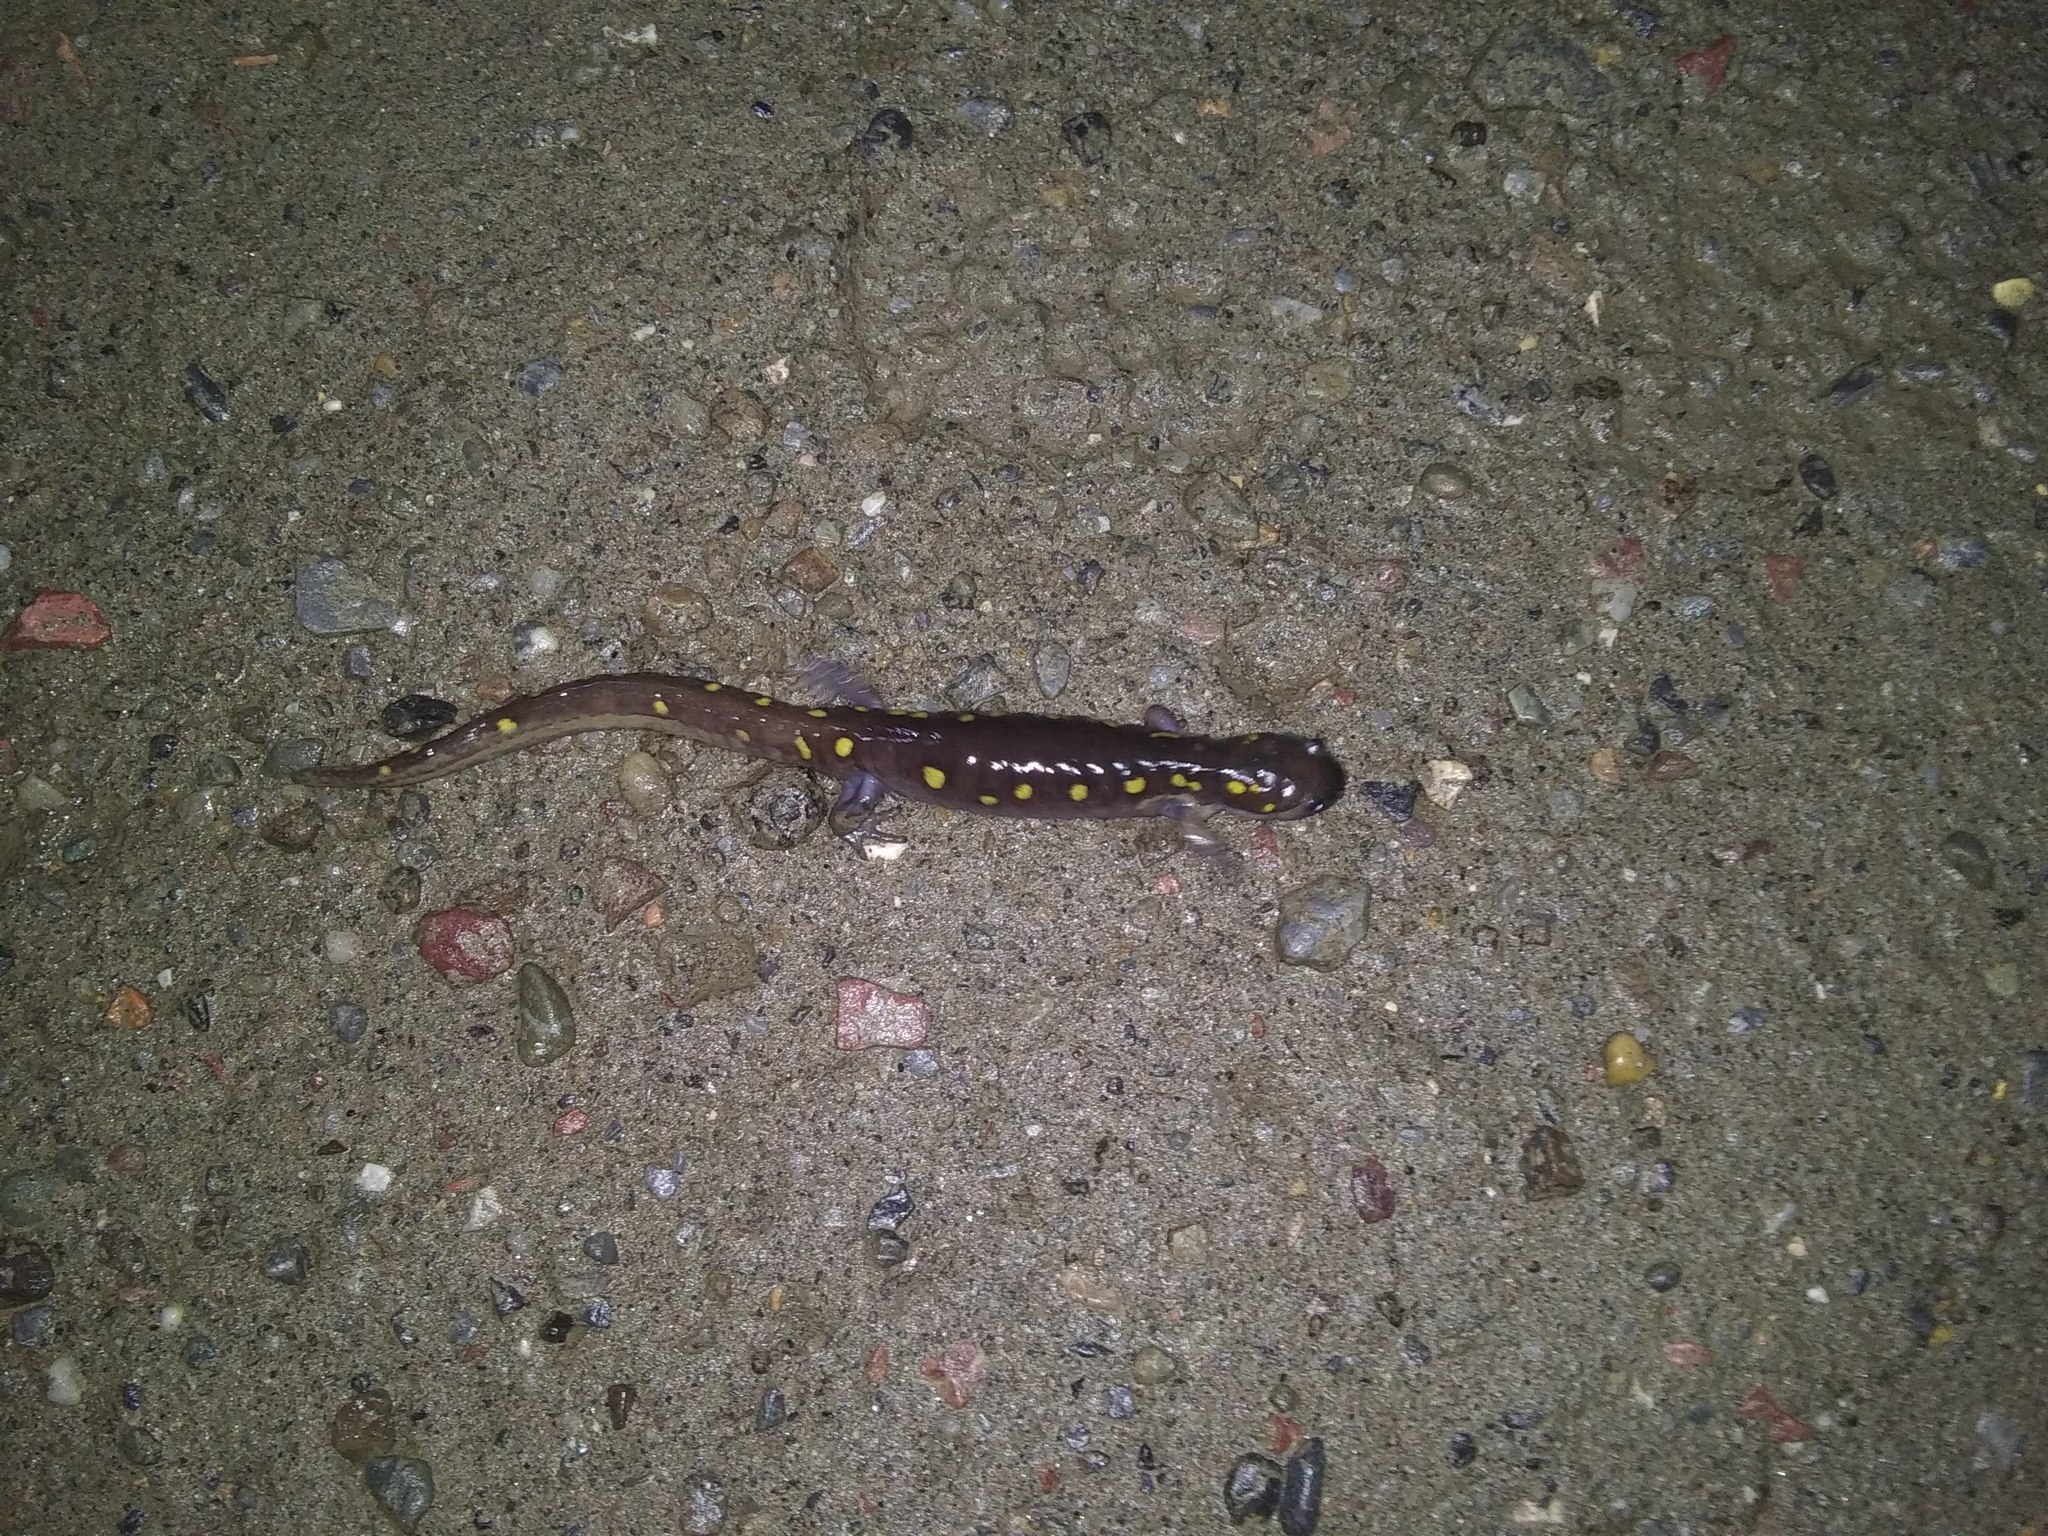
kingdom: Animalia
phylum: Chordata
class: Amphibia
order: Caudata
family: Ambystomatidae
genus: Ambystoma
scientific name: Ambystoma maculatum
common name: Spotted salamander
